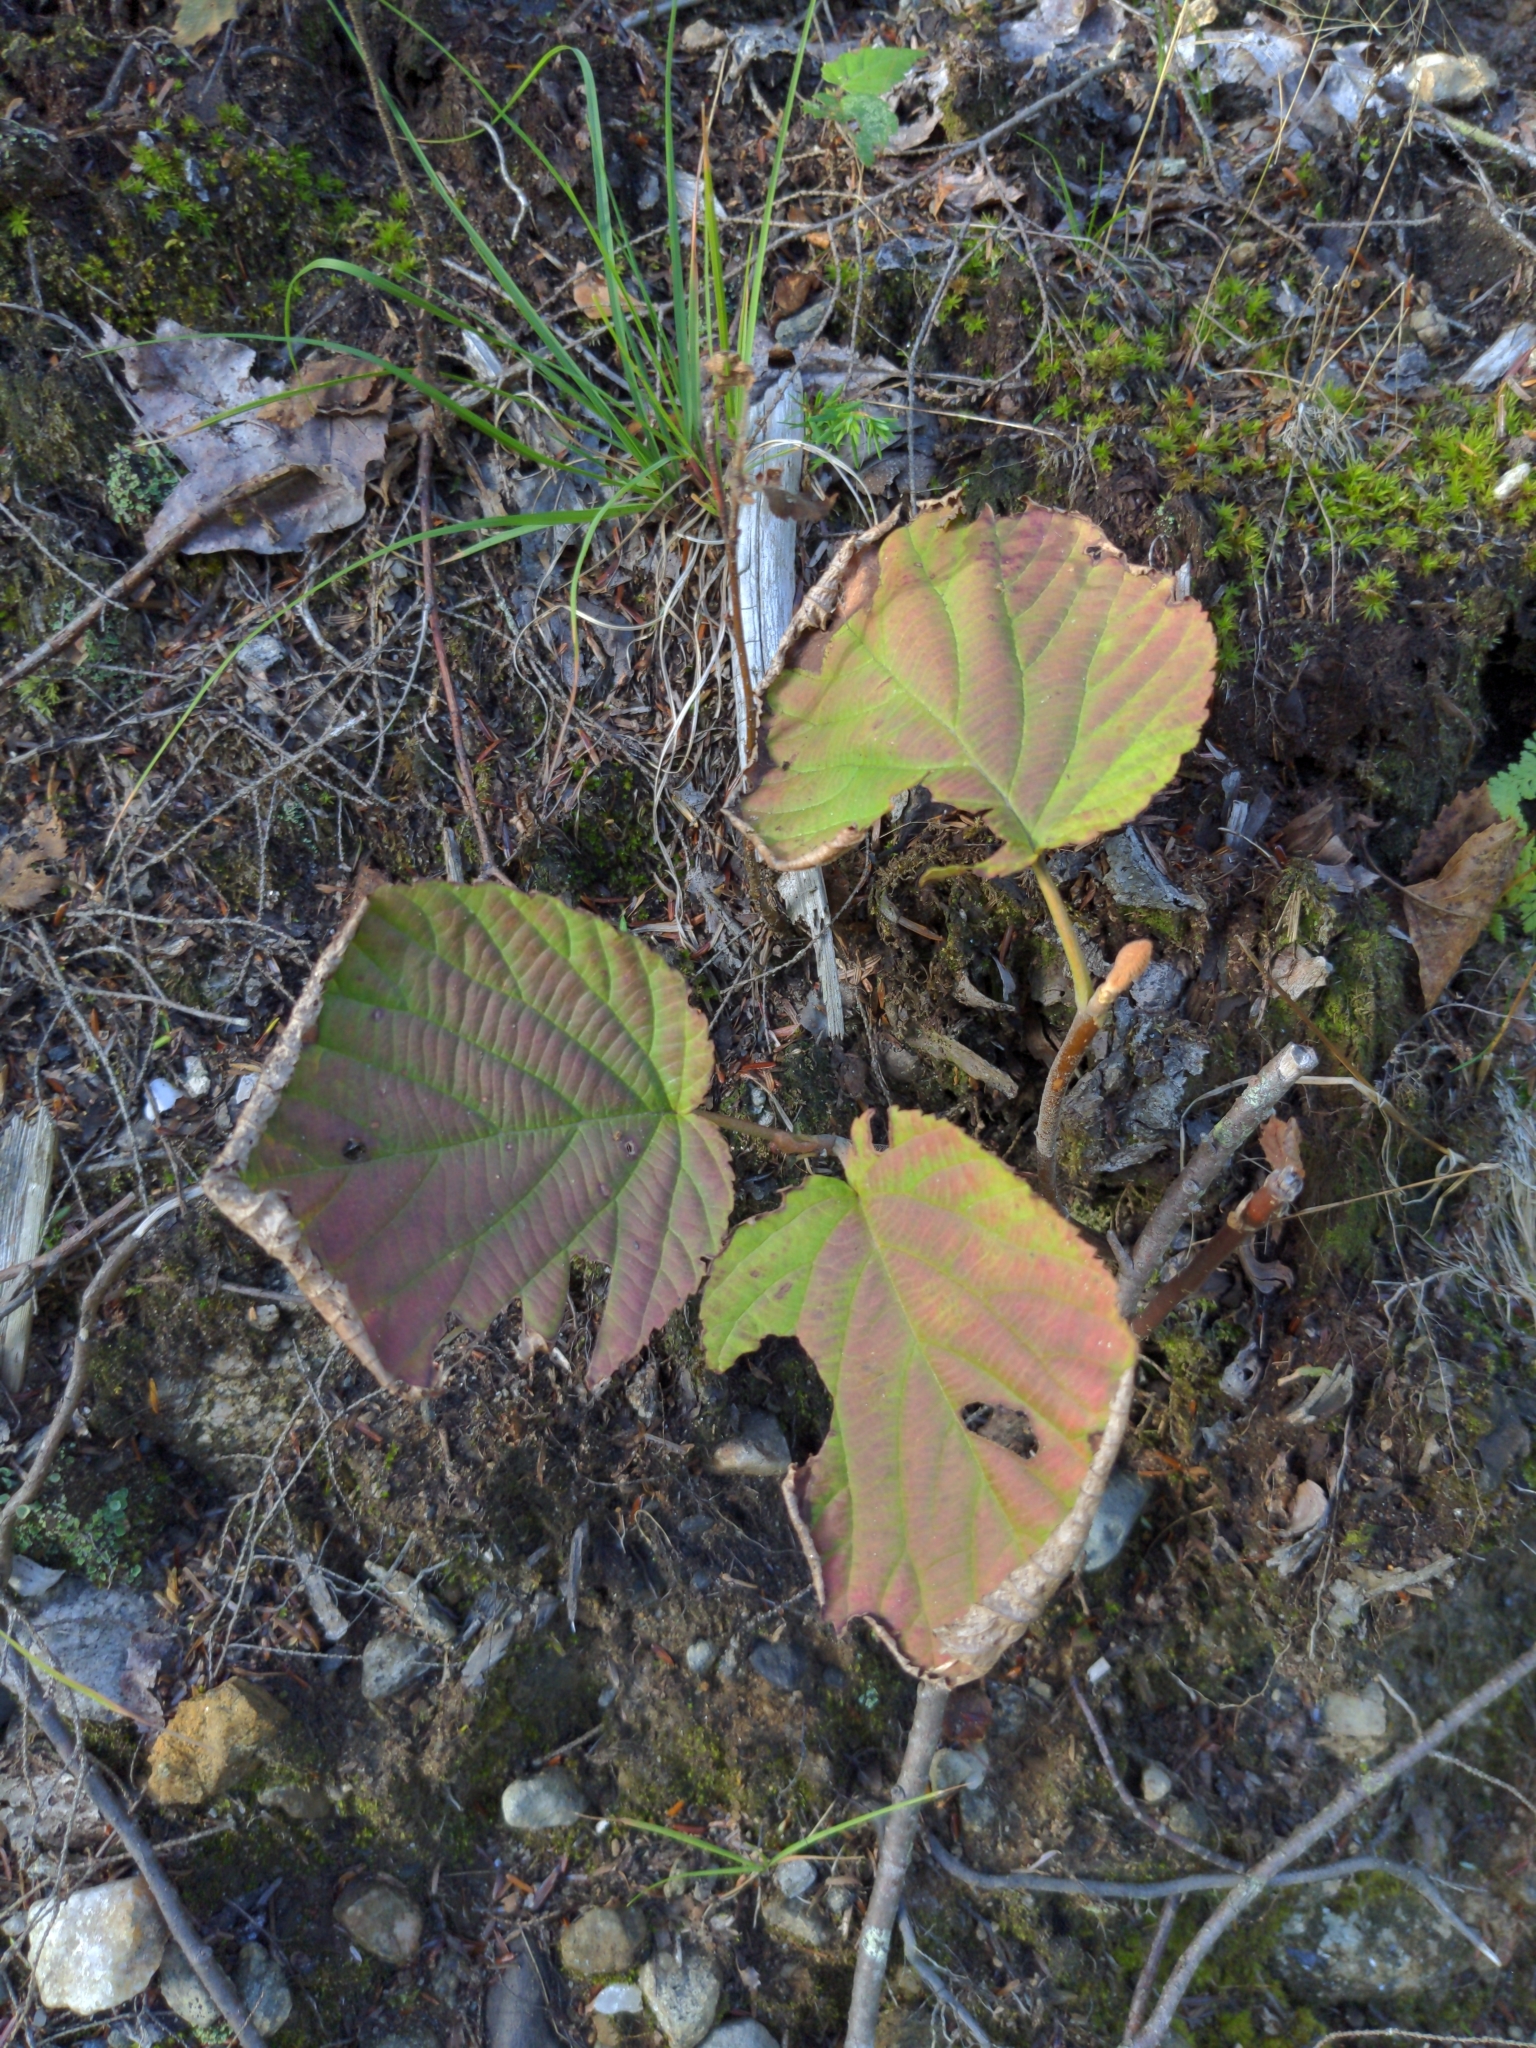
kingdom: Plantae
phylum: Tracheophyta
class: Magnoliopsida
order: Dipsacales
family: Viburnaceae
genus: Viburnum
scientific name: Viburnum lantanoides
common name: Hobblebush
